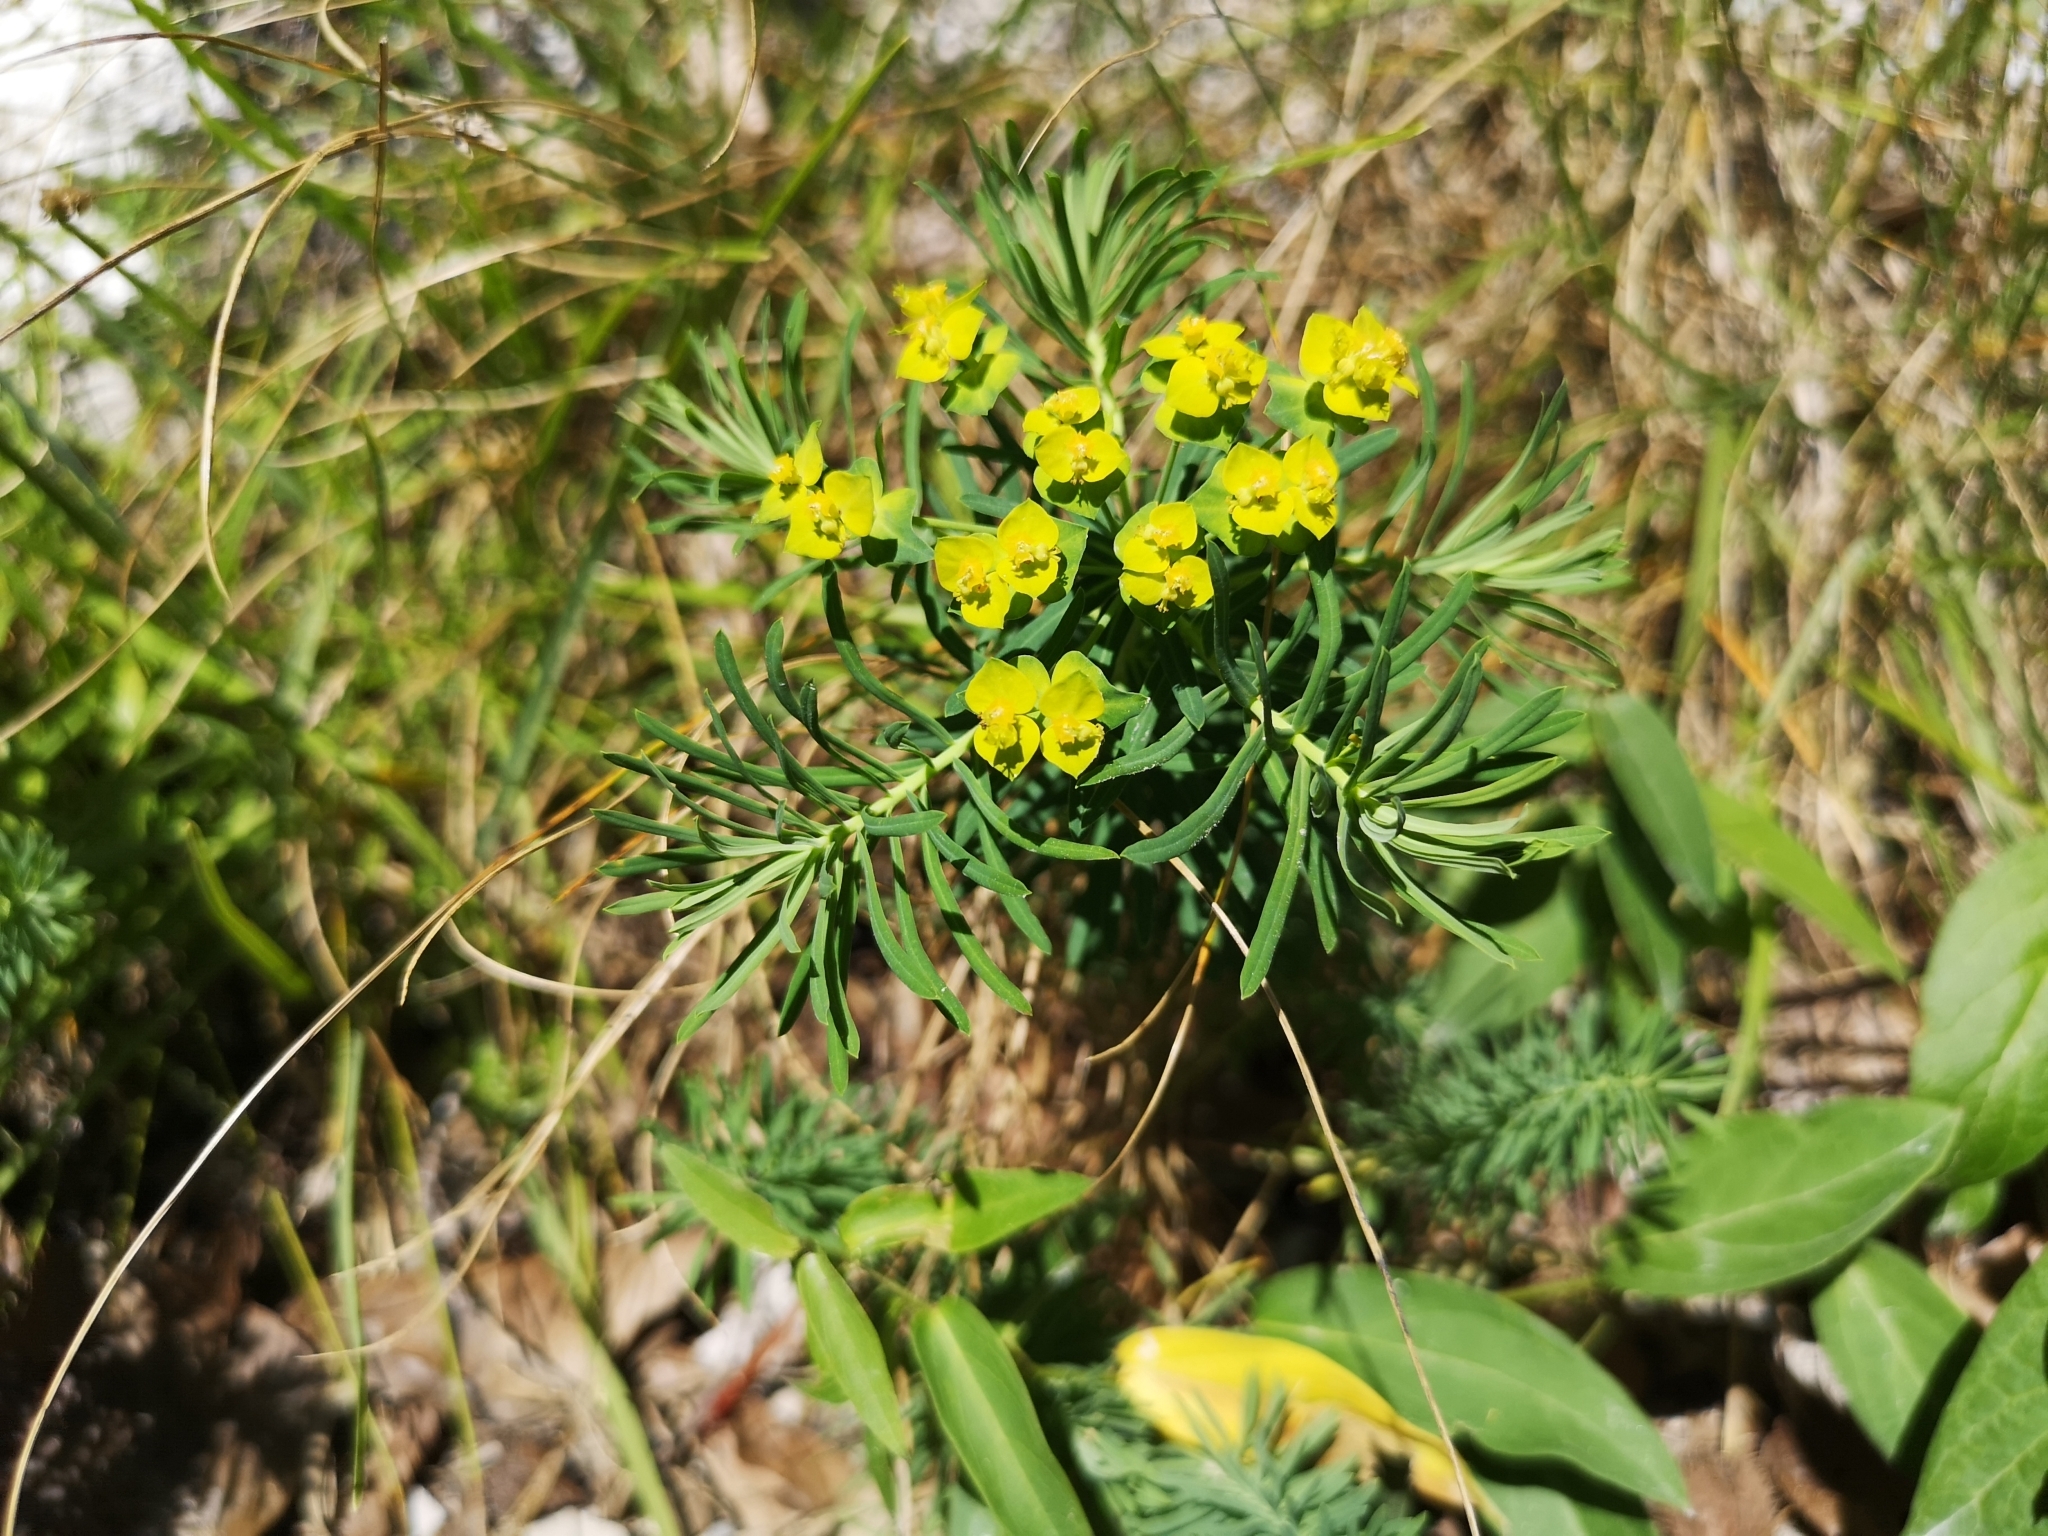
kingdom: Plantae
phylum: Tracheophyta
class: Magnoliopsida
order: Malpighiales
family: Euphorbiaceae
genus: Euphorbia
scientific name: Euphorbia cyparissias
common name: Cypress spurge
